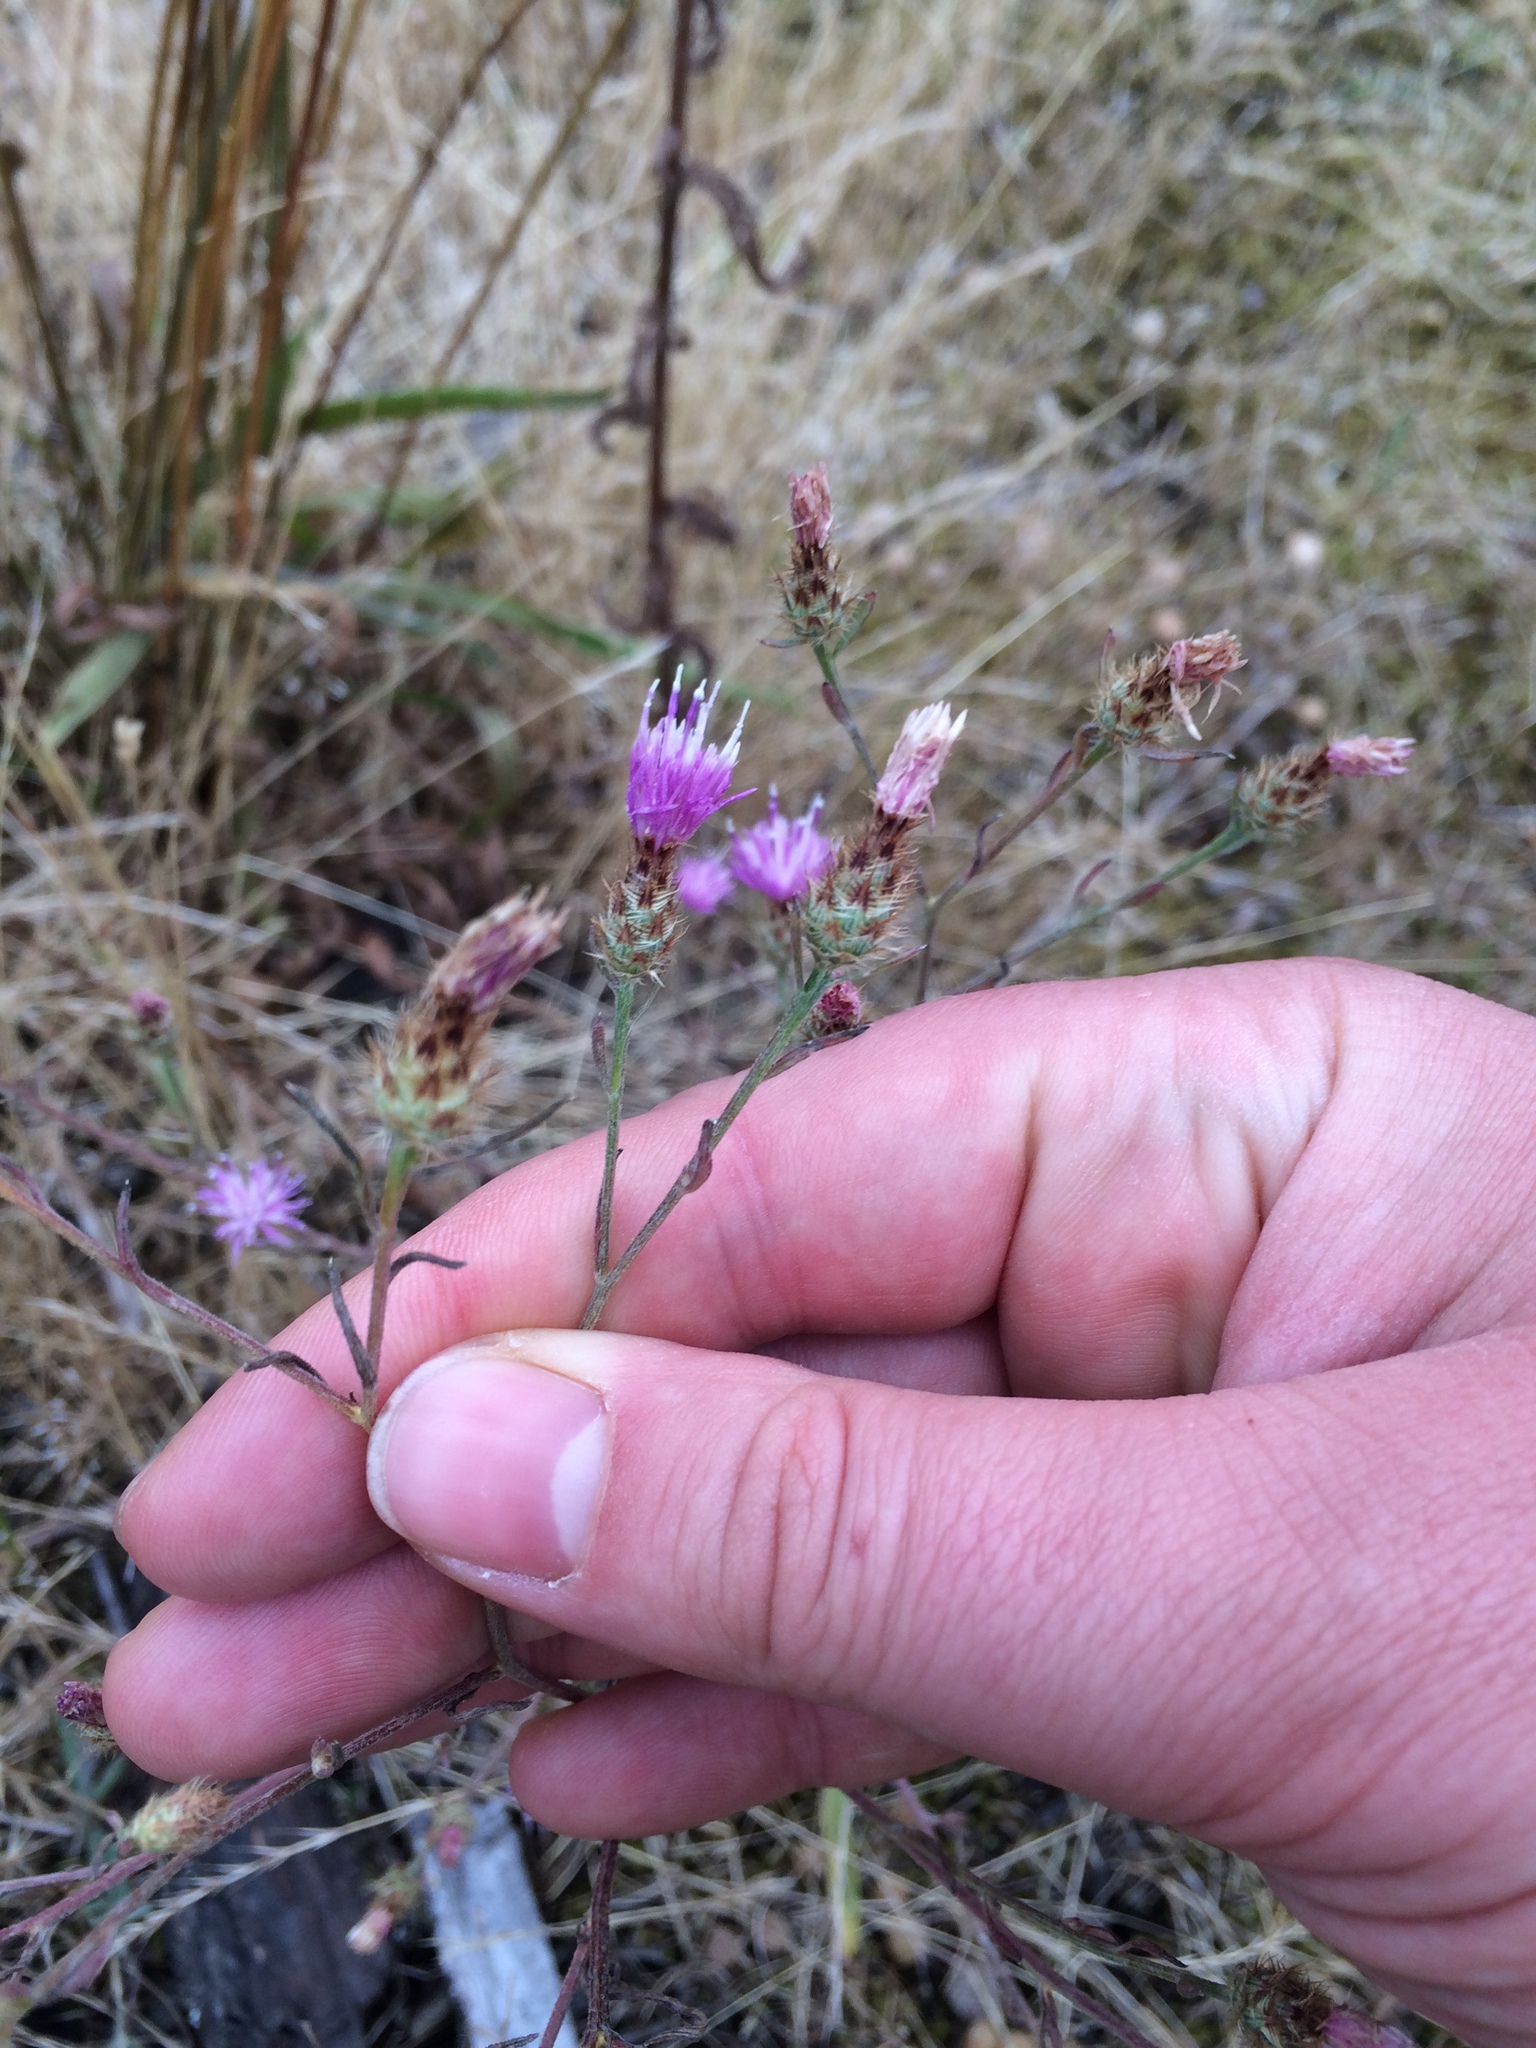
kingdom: Plantae
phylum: Tracheophyta
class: Magnoliopsida
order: Asterales
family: Asteraceae
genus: Centaurea
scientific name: Centaurea stoebe
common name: Spotted knapweed
